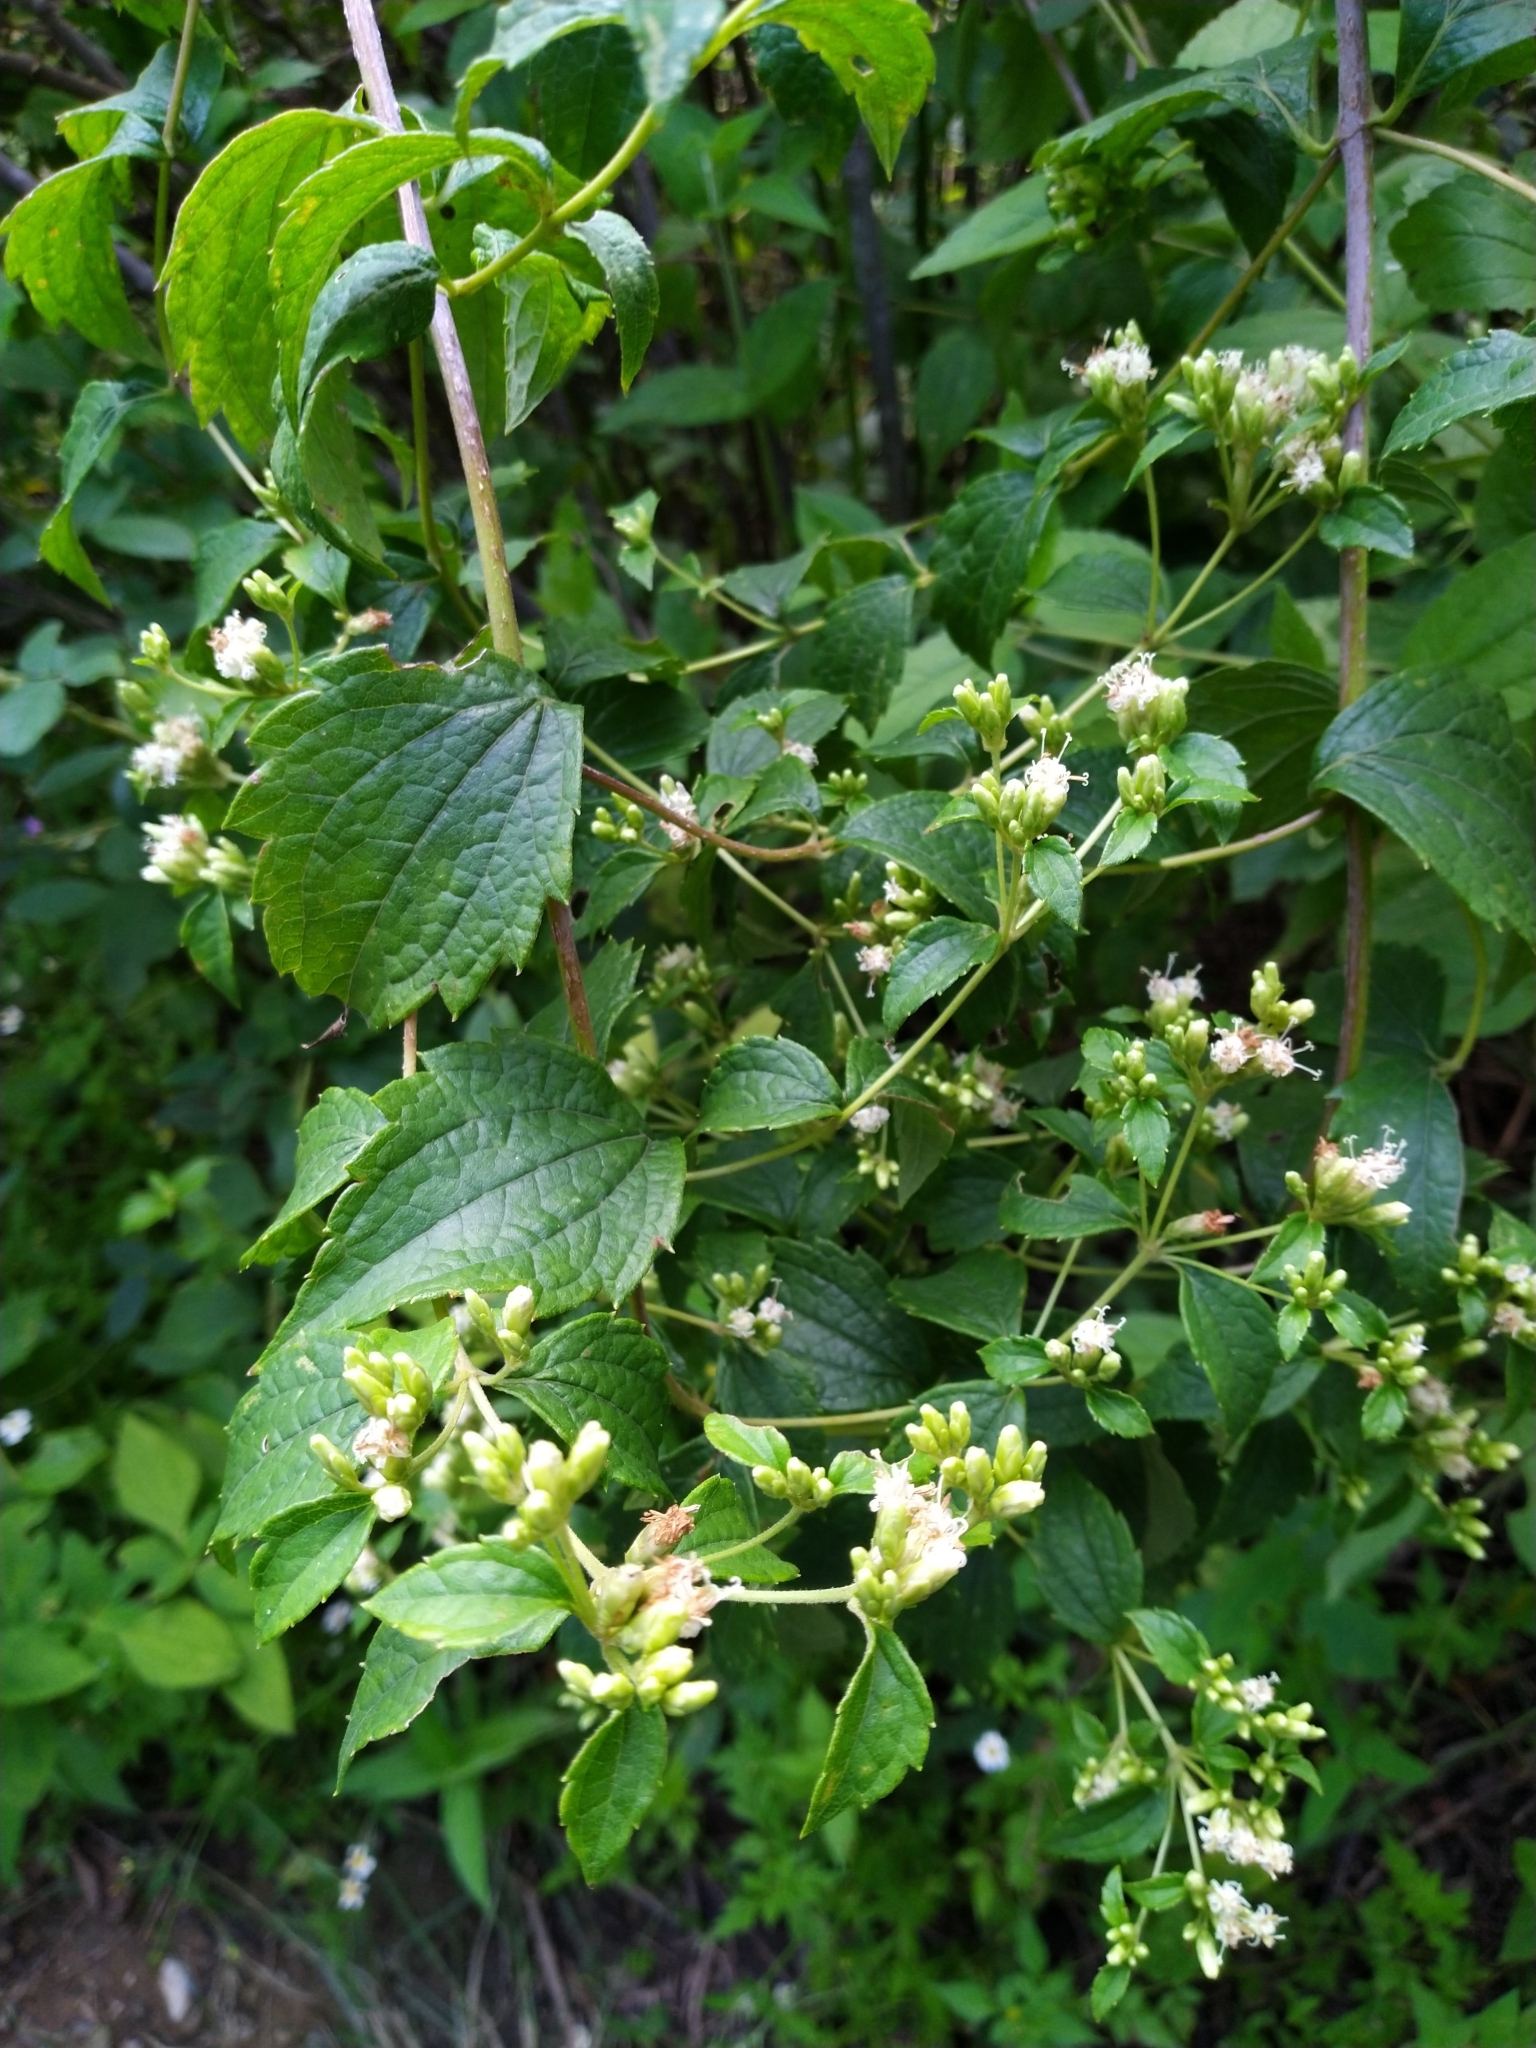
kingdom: Plantae
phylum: Tracheophyta
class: Magnoliopsida
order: Asterales
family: Asteraceae
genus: Calea
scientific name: Calea ternifolia
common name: Mexican calea
